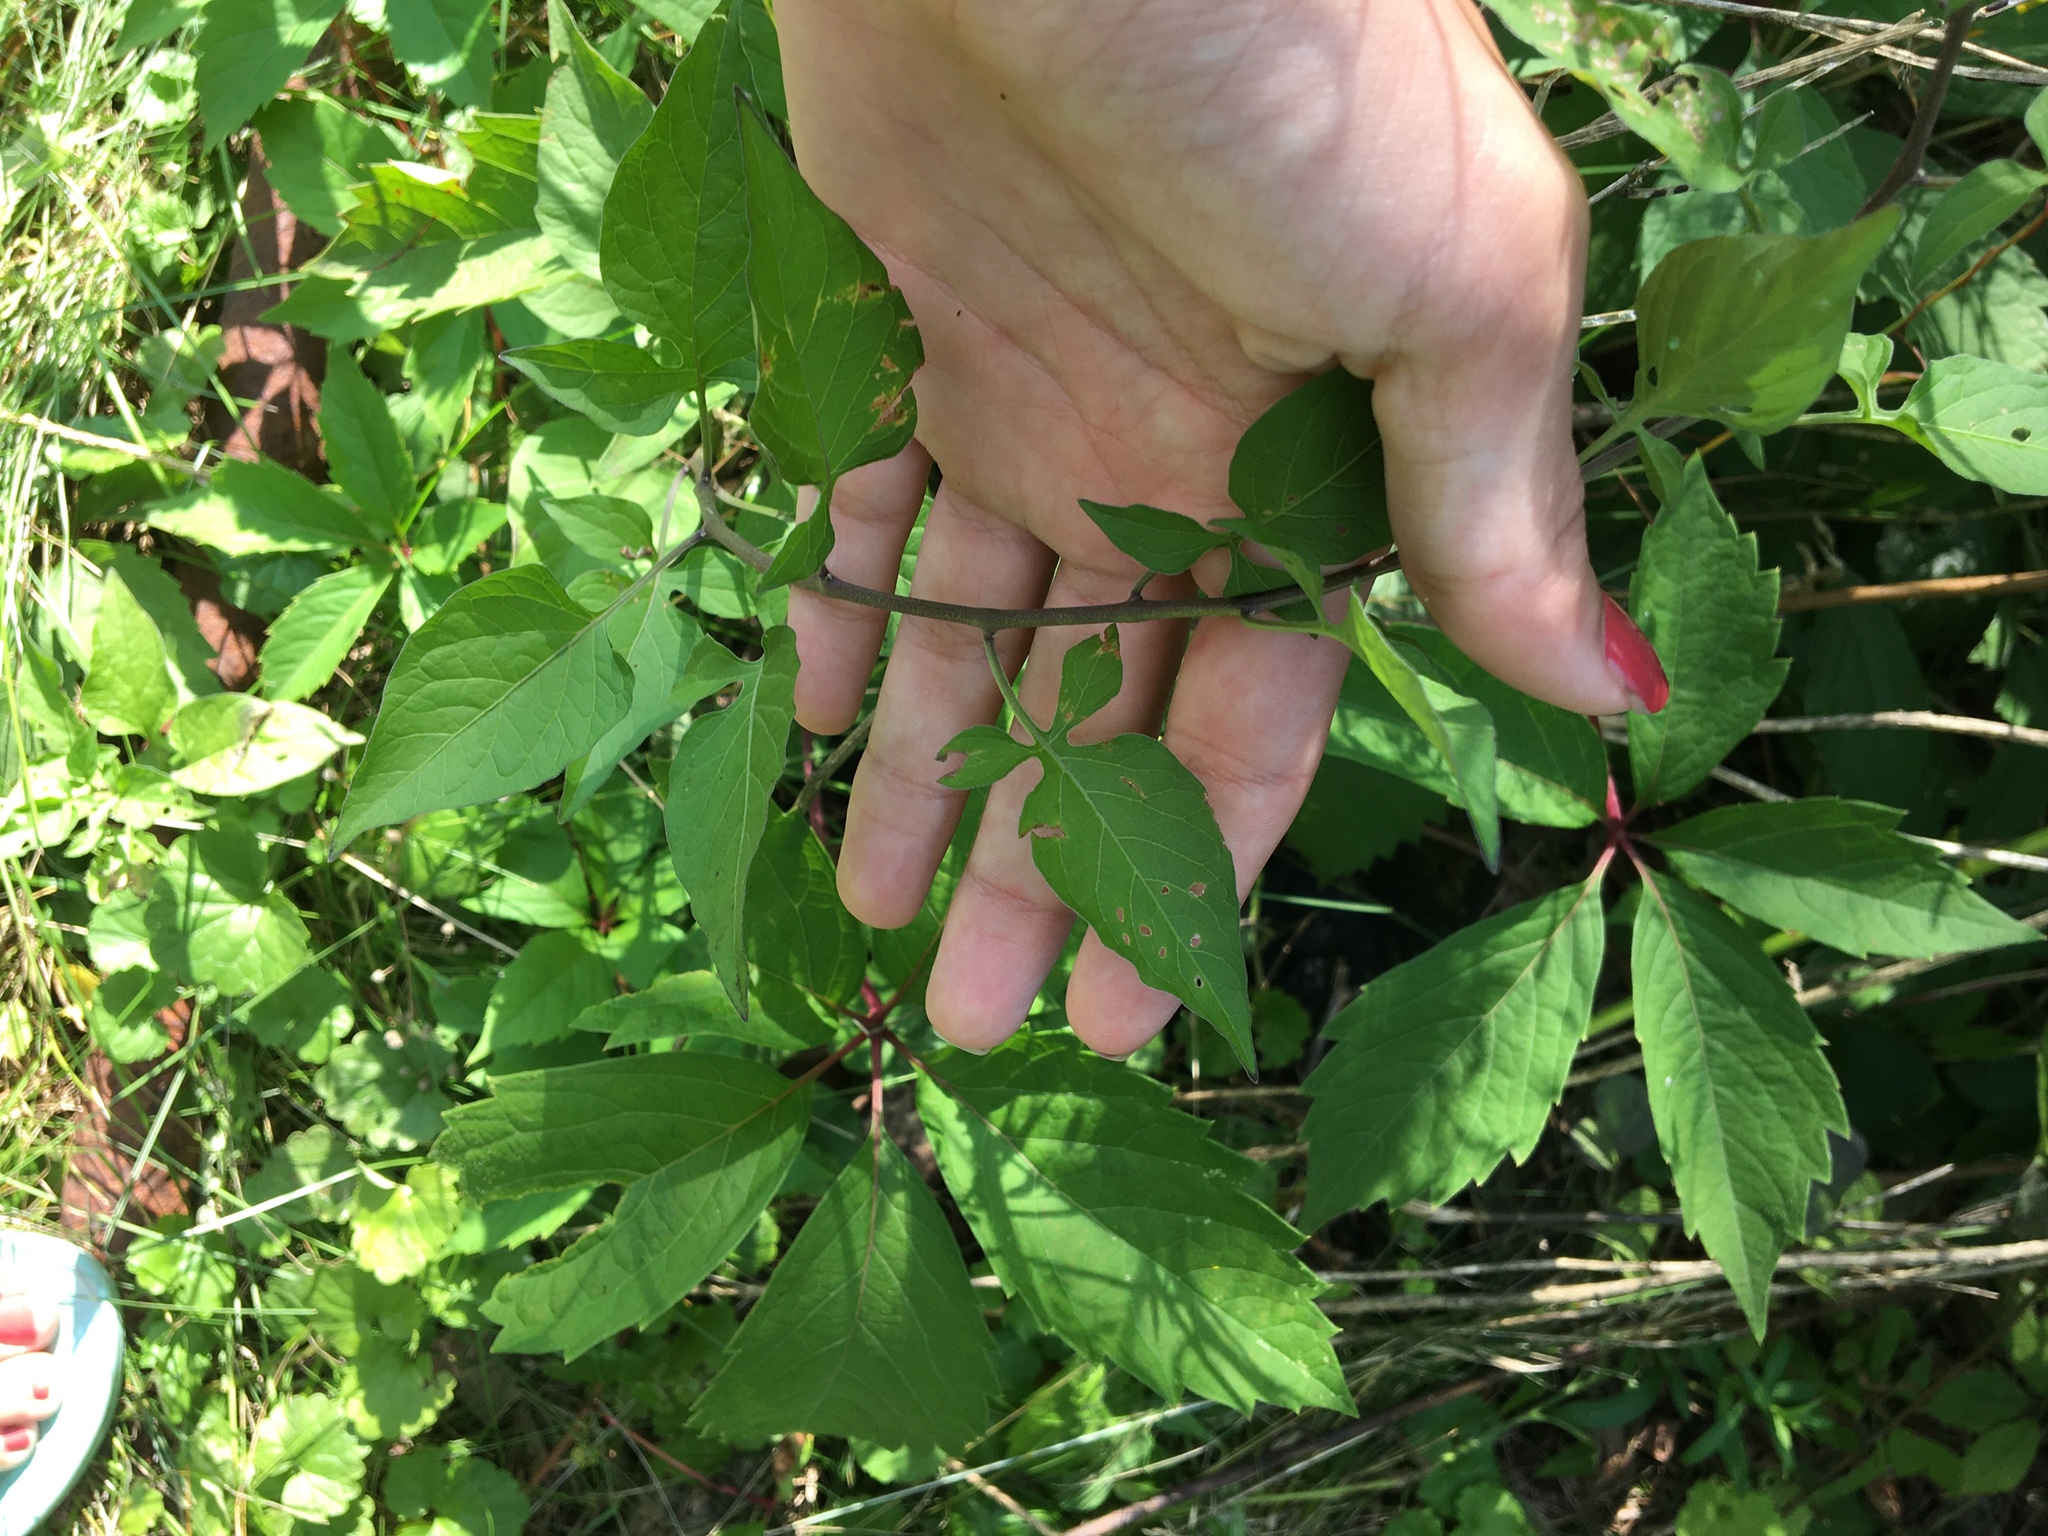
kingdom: Plantae
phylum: Tracheophyta
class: Magnoliopsida
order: Solanales
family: Solanaceae
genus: Solanum
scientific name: Solanum dulcamara
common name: Climbing nightshade
